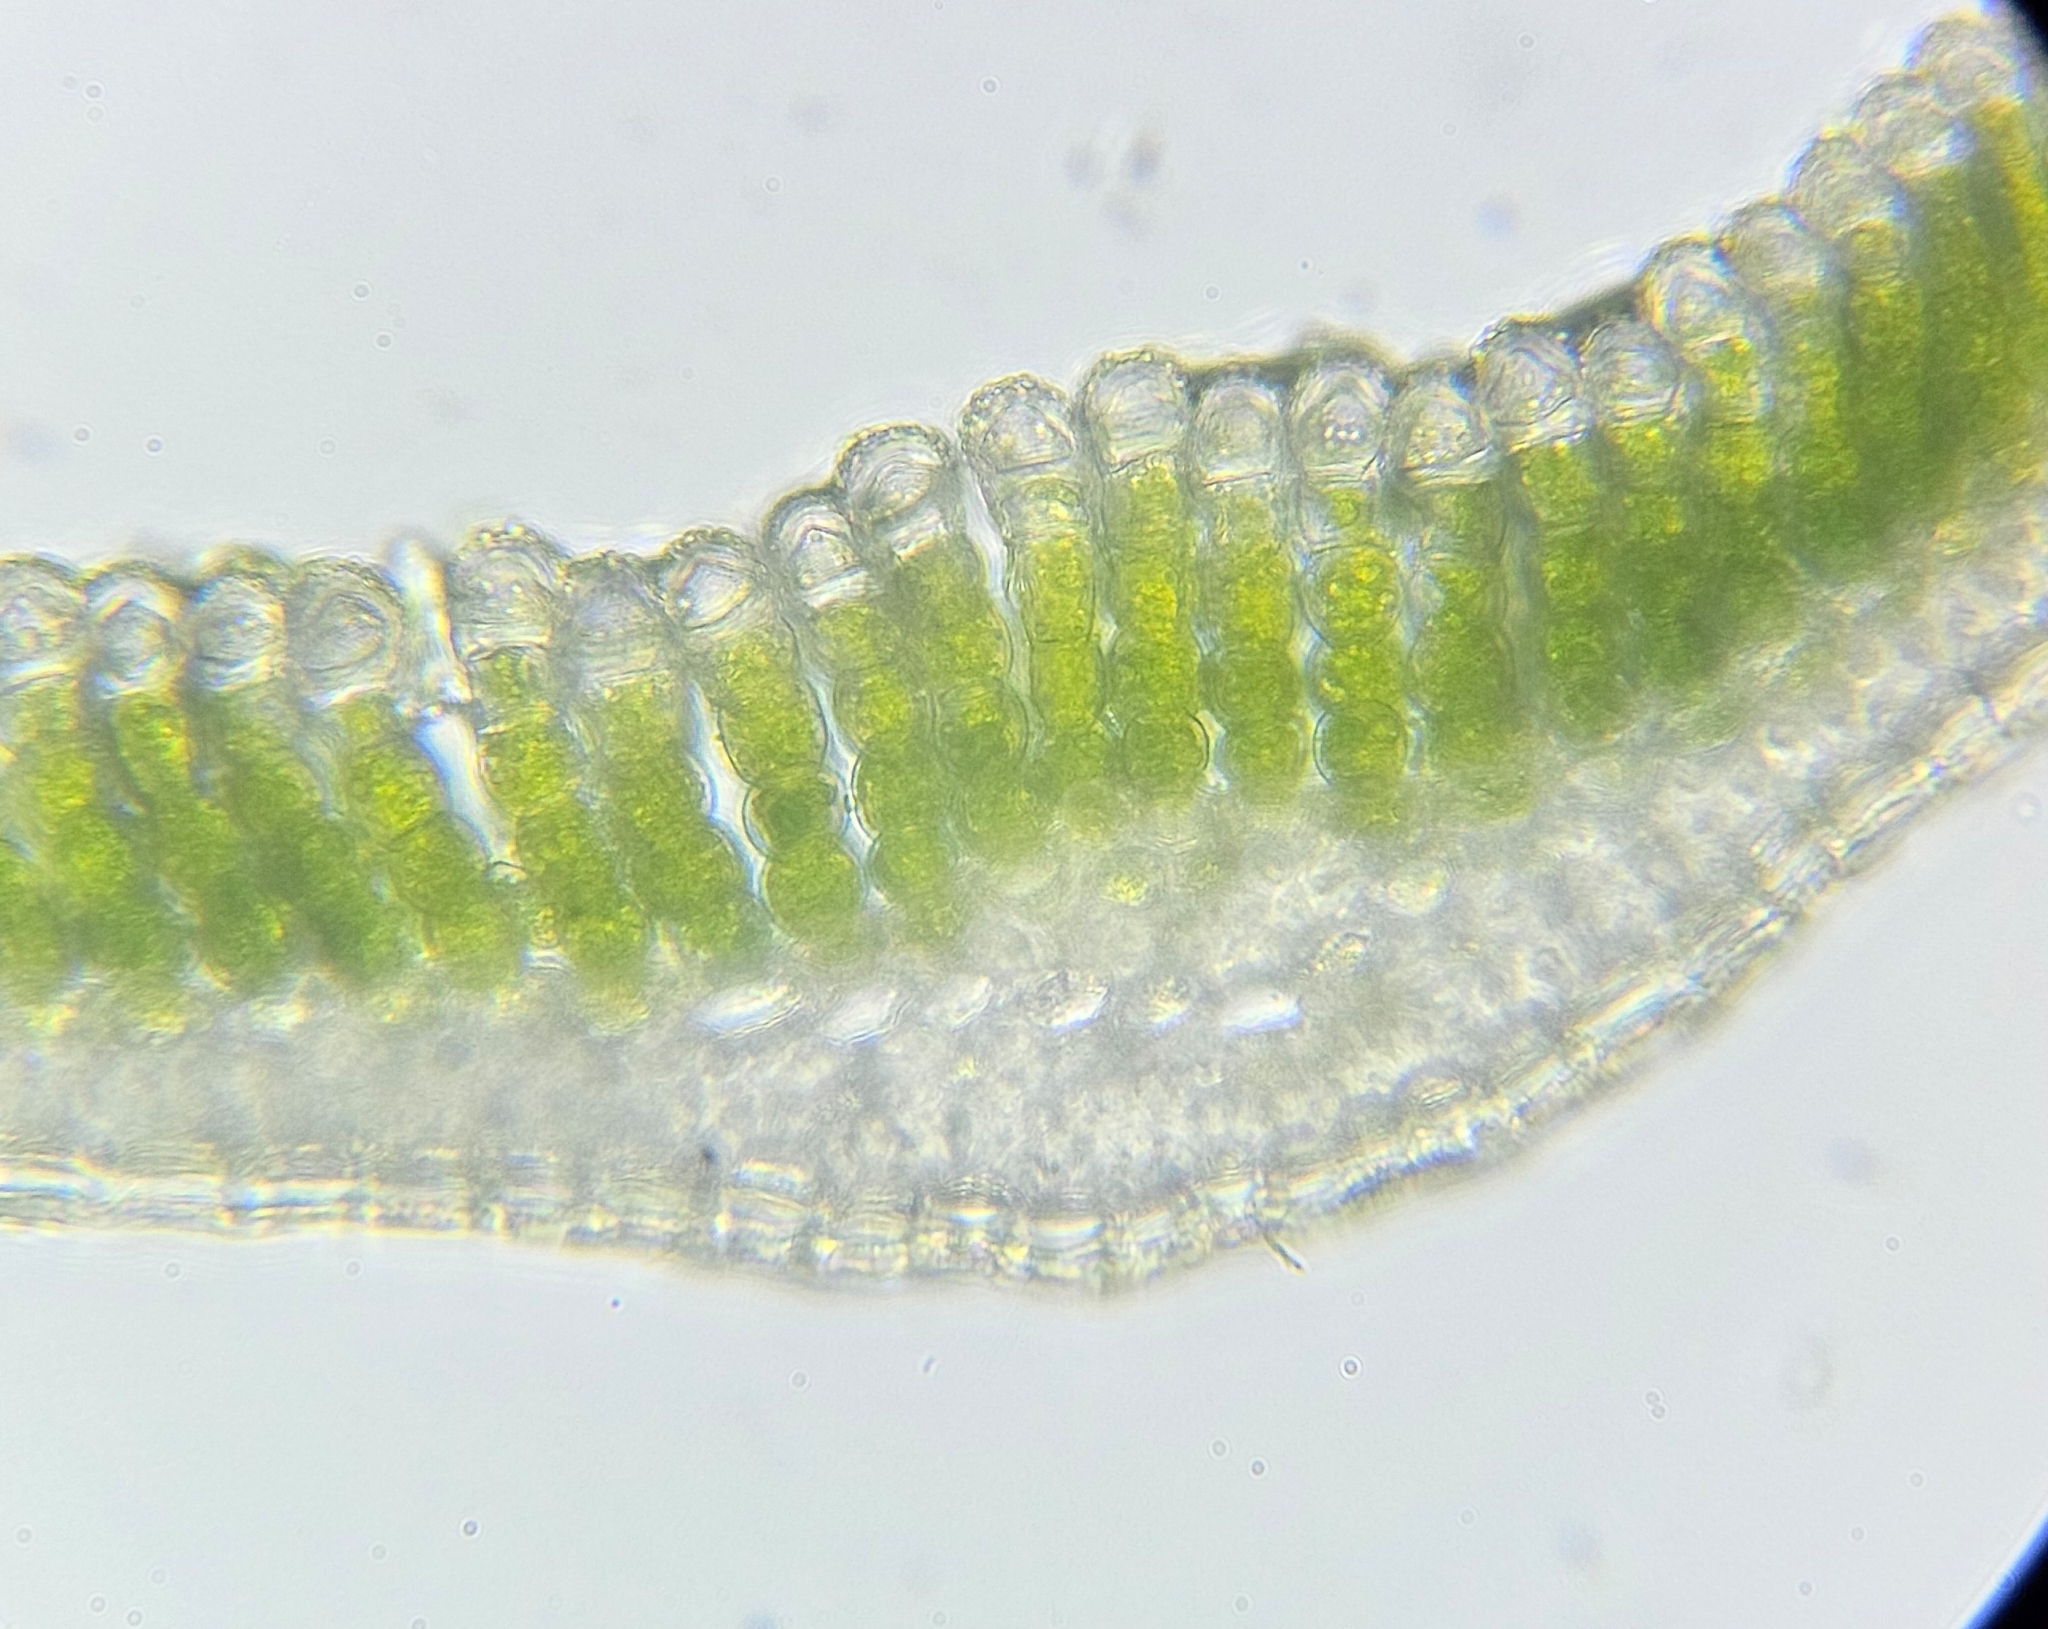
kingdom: Plantae
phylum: Bryophyta
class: Polytrichopsida
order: Polytrichales
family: Polytrichaceae
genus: Pogonatum
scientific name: Pogonatum urnigerum
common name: Urn hair moss
